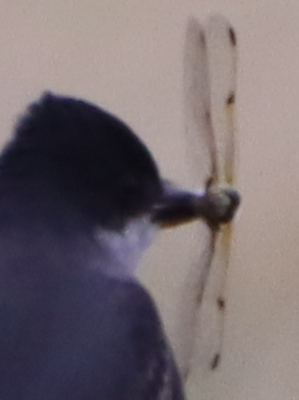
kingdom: Animalia
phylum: Arthropoda
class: Insecta
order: Odonata
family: Libellulidae
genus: Libellula
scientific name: Libellula quadrimaculata
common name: Four-spotted chaser
